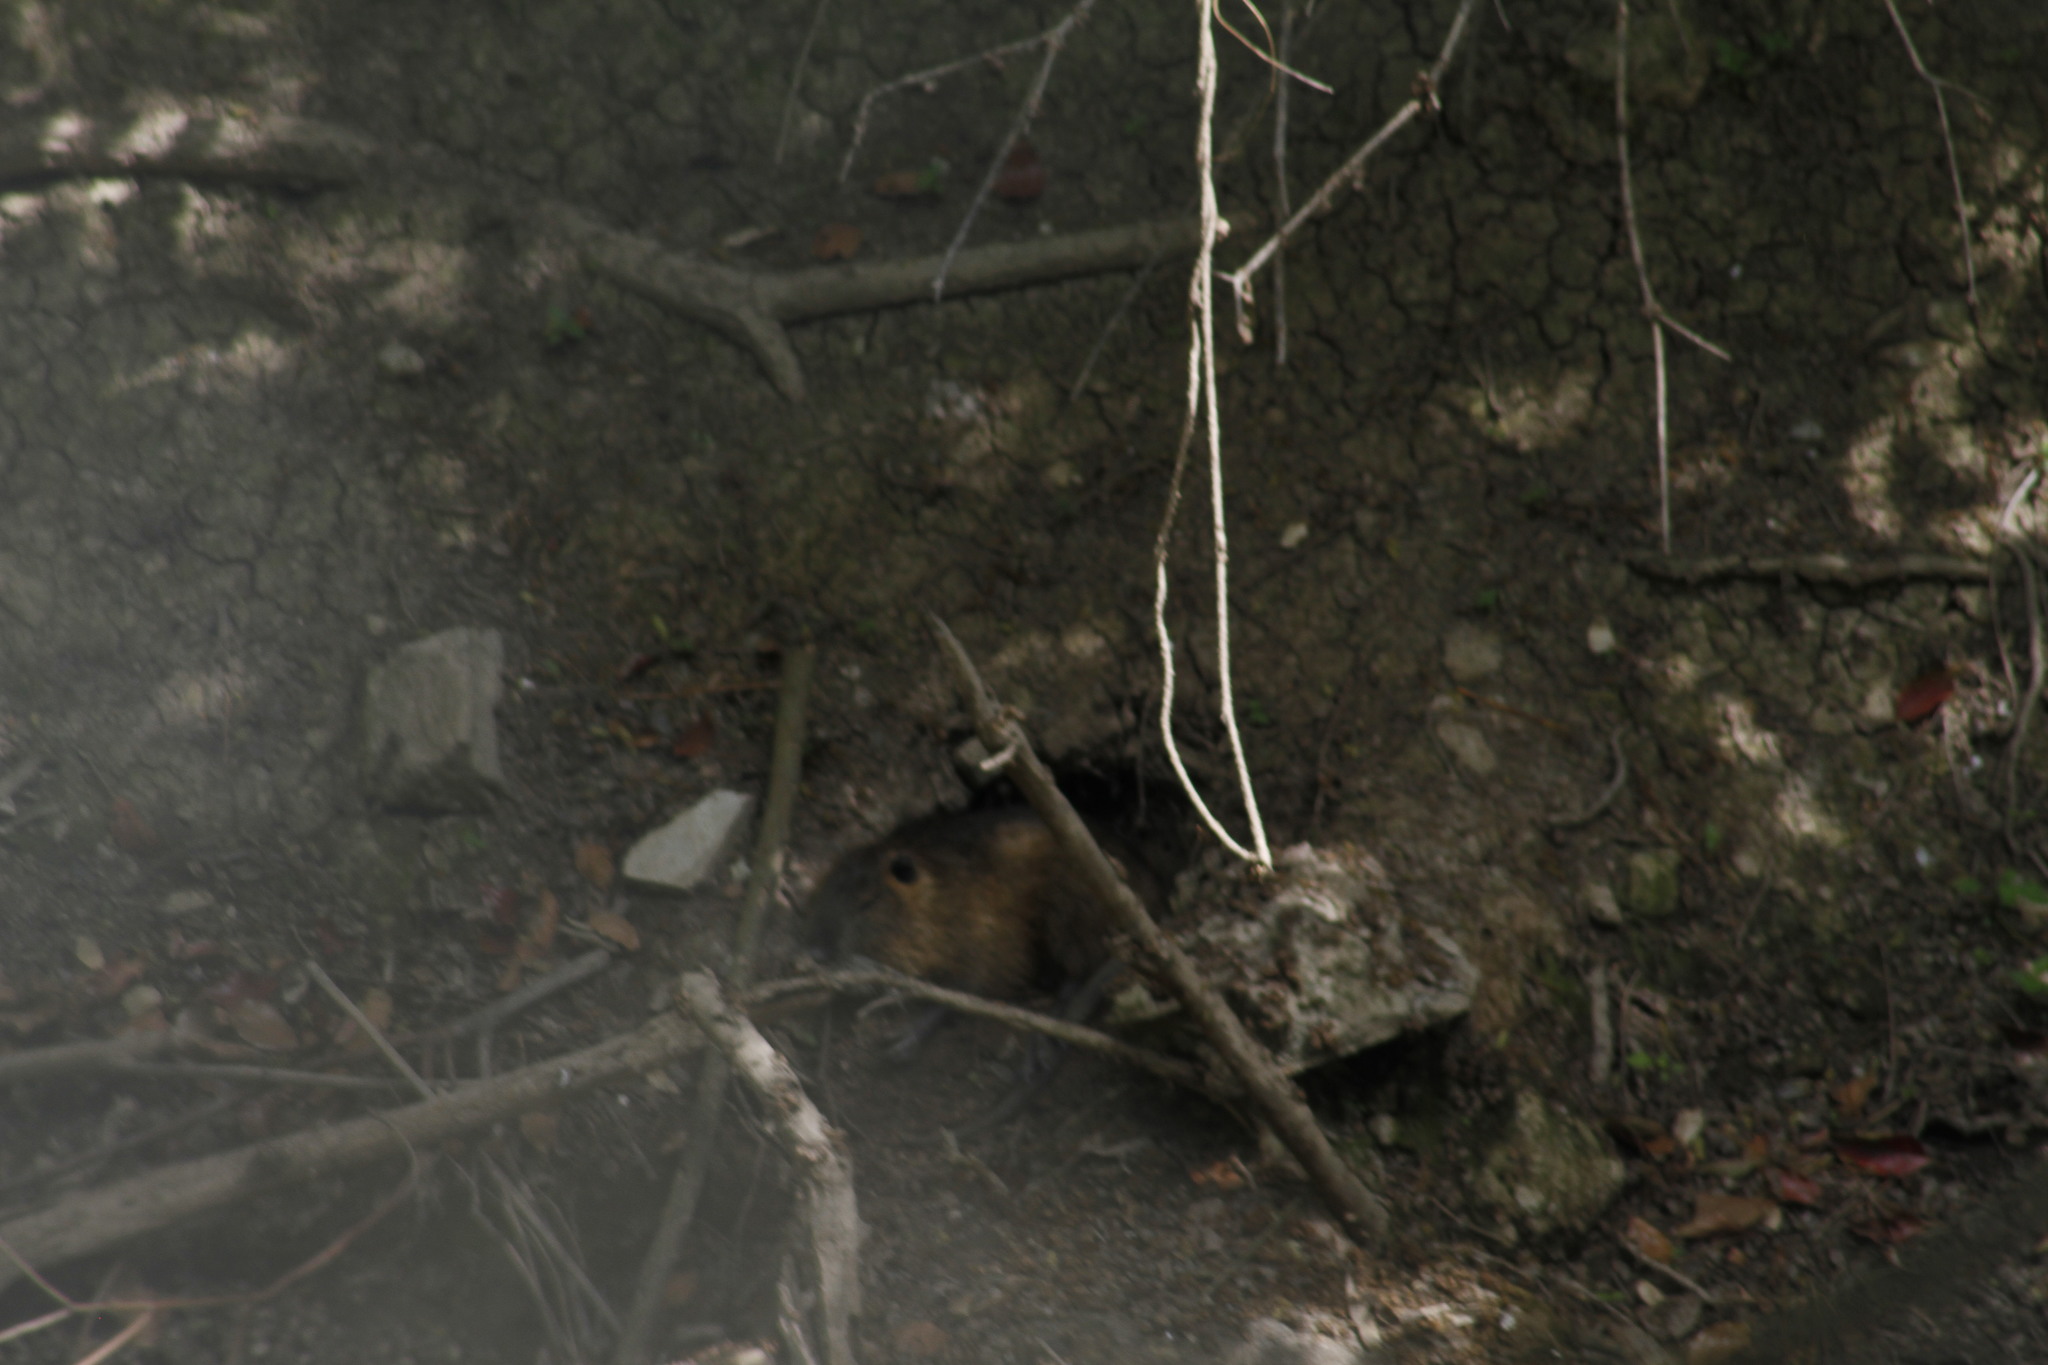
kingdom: Animalia
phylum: Chordata
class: Mammalia
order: Rodentia
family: Myocastoridae
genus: Myocastor
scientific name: Myocastor coypus
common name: Coypu
